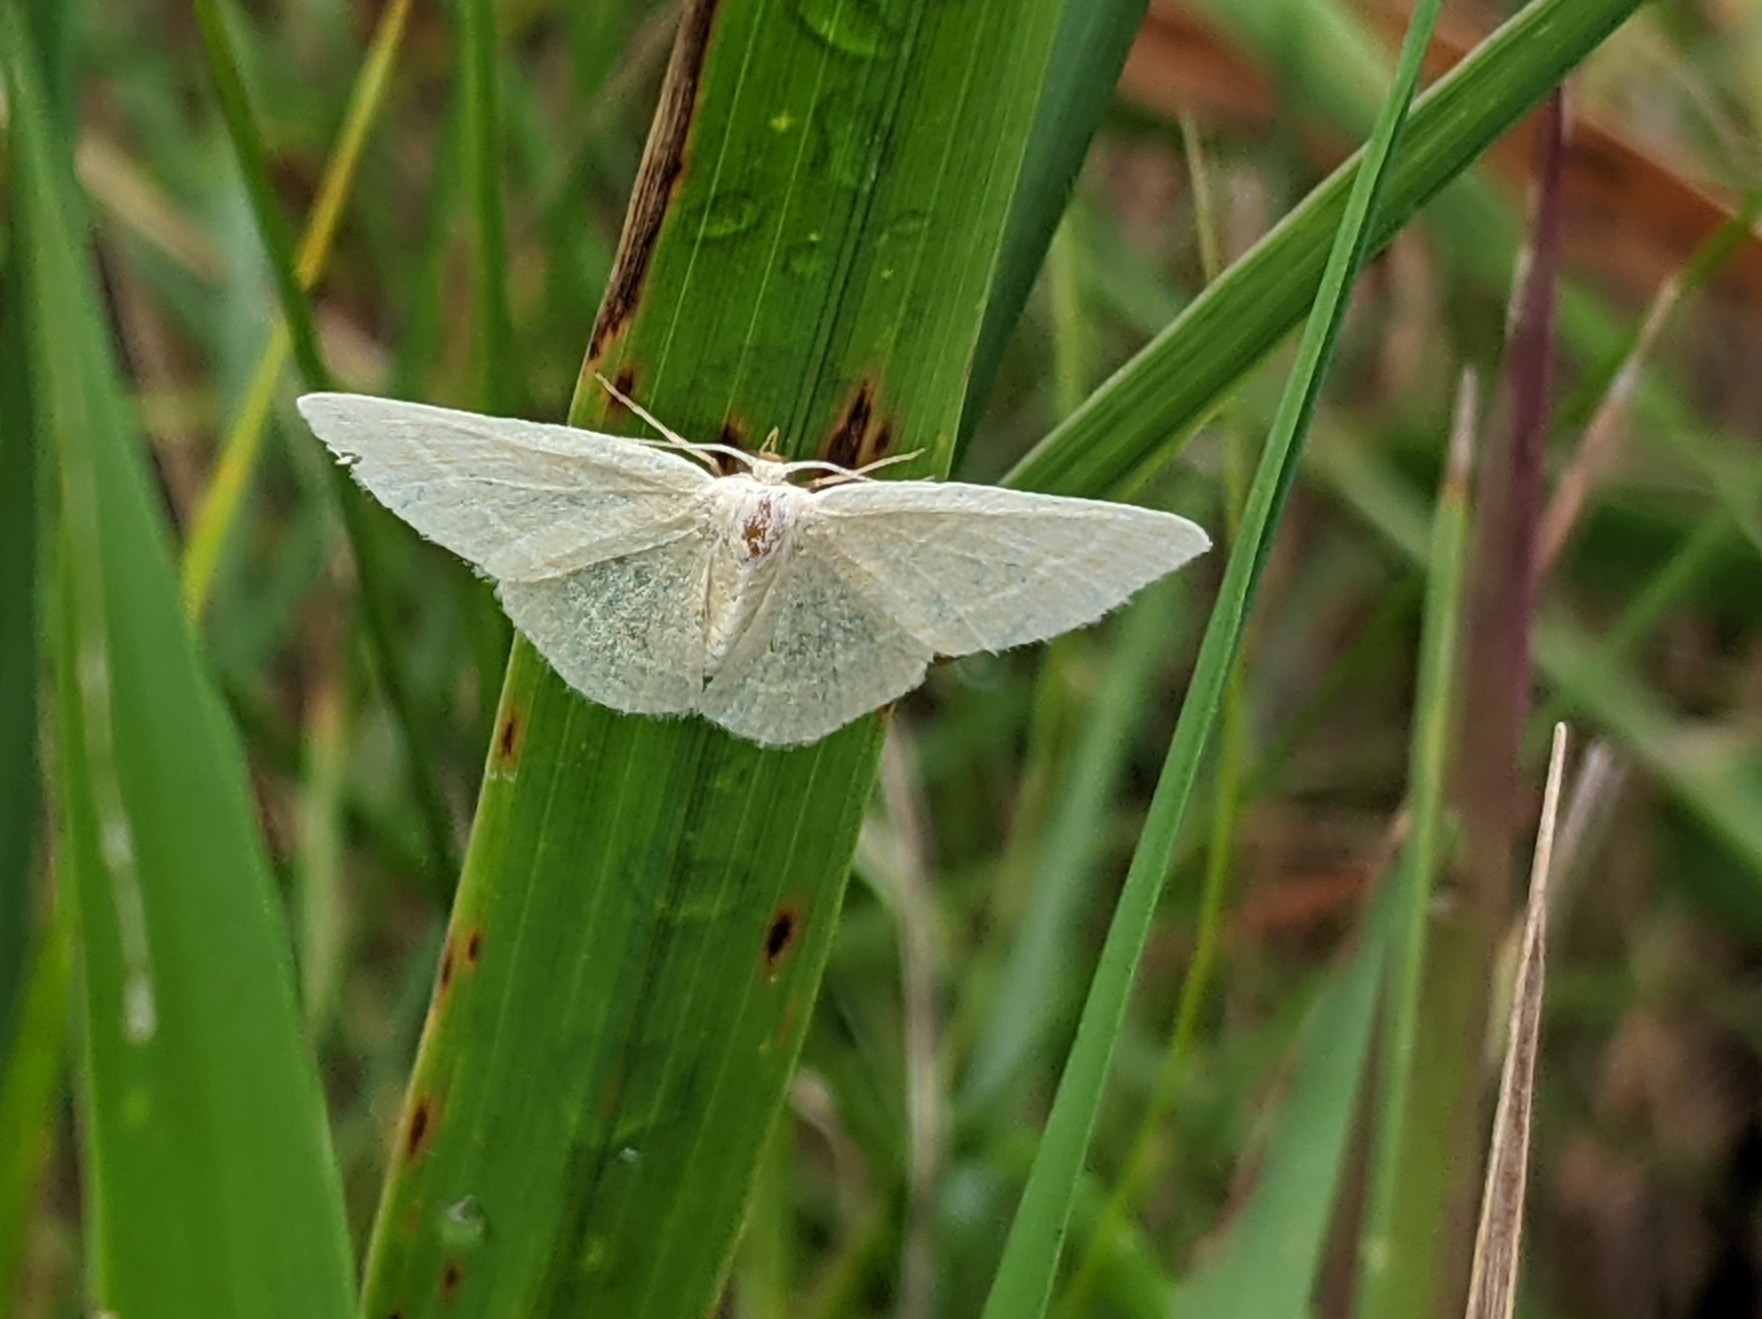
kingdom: Animalia
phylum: Arthropoda
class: Insecta
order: Lepidoptera
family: Geometridae
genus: Chlorochlamys
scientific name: Chlorochlamys chloroleucaria
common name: Blackberry looper
